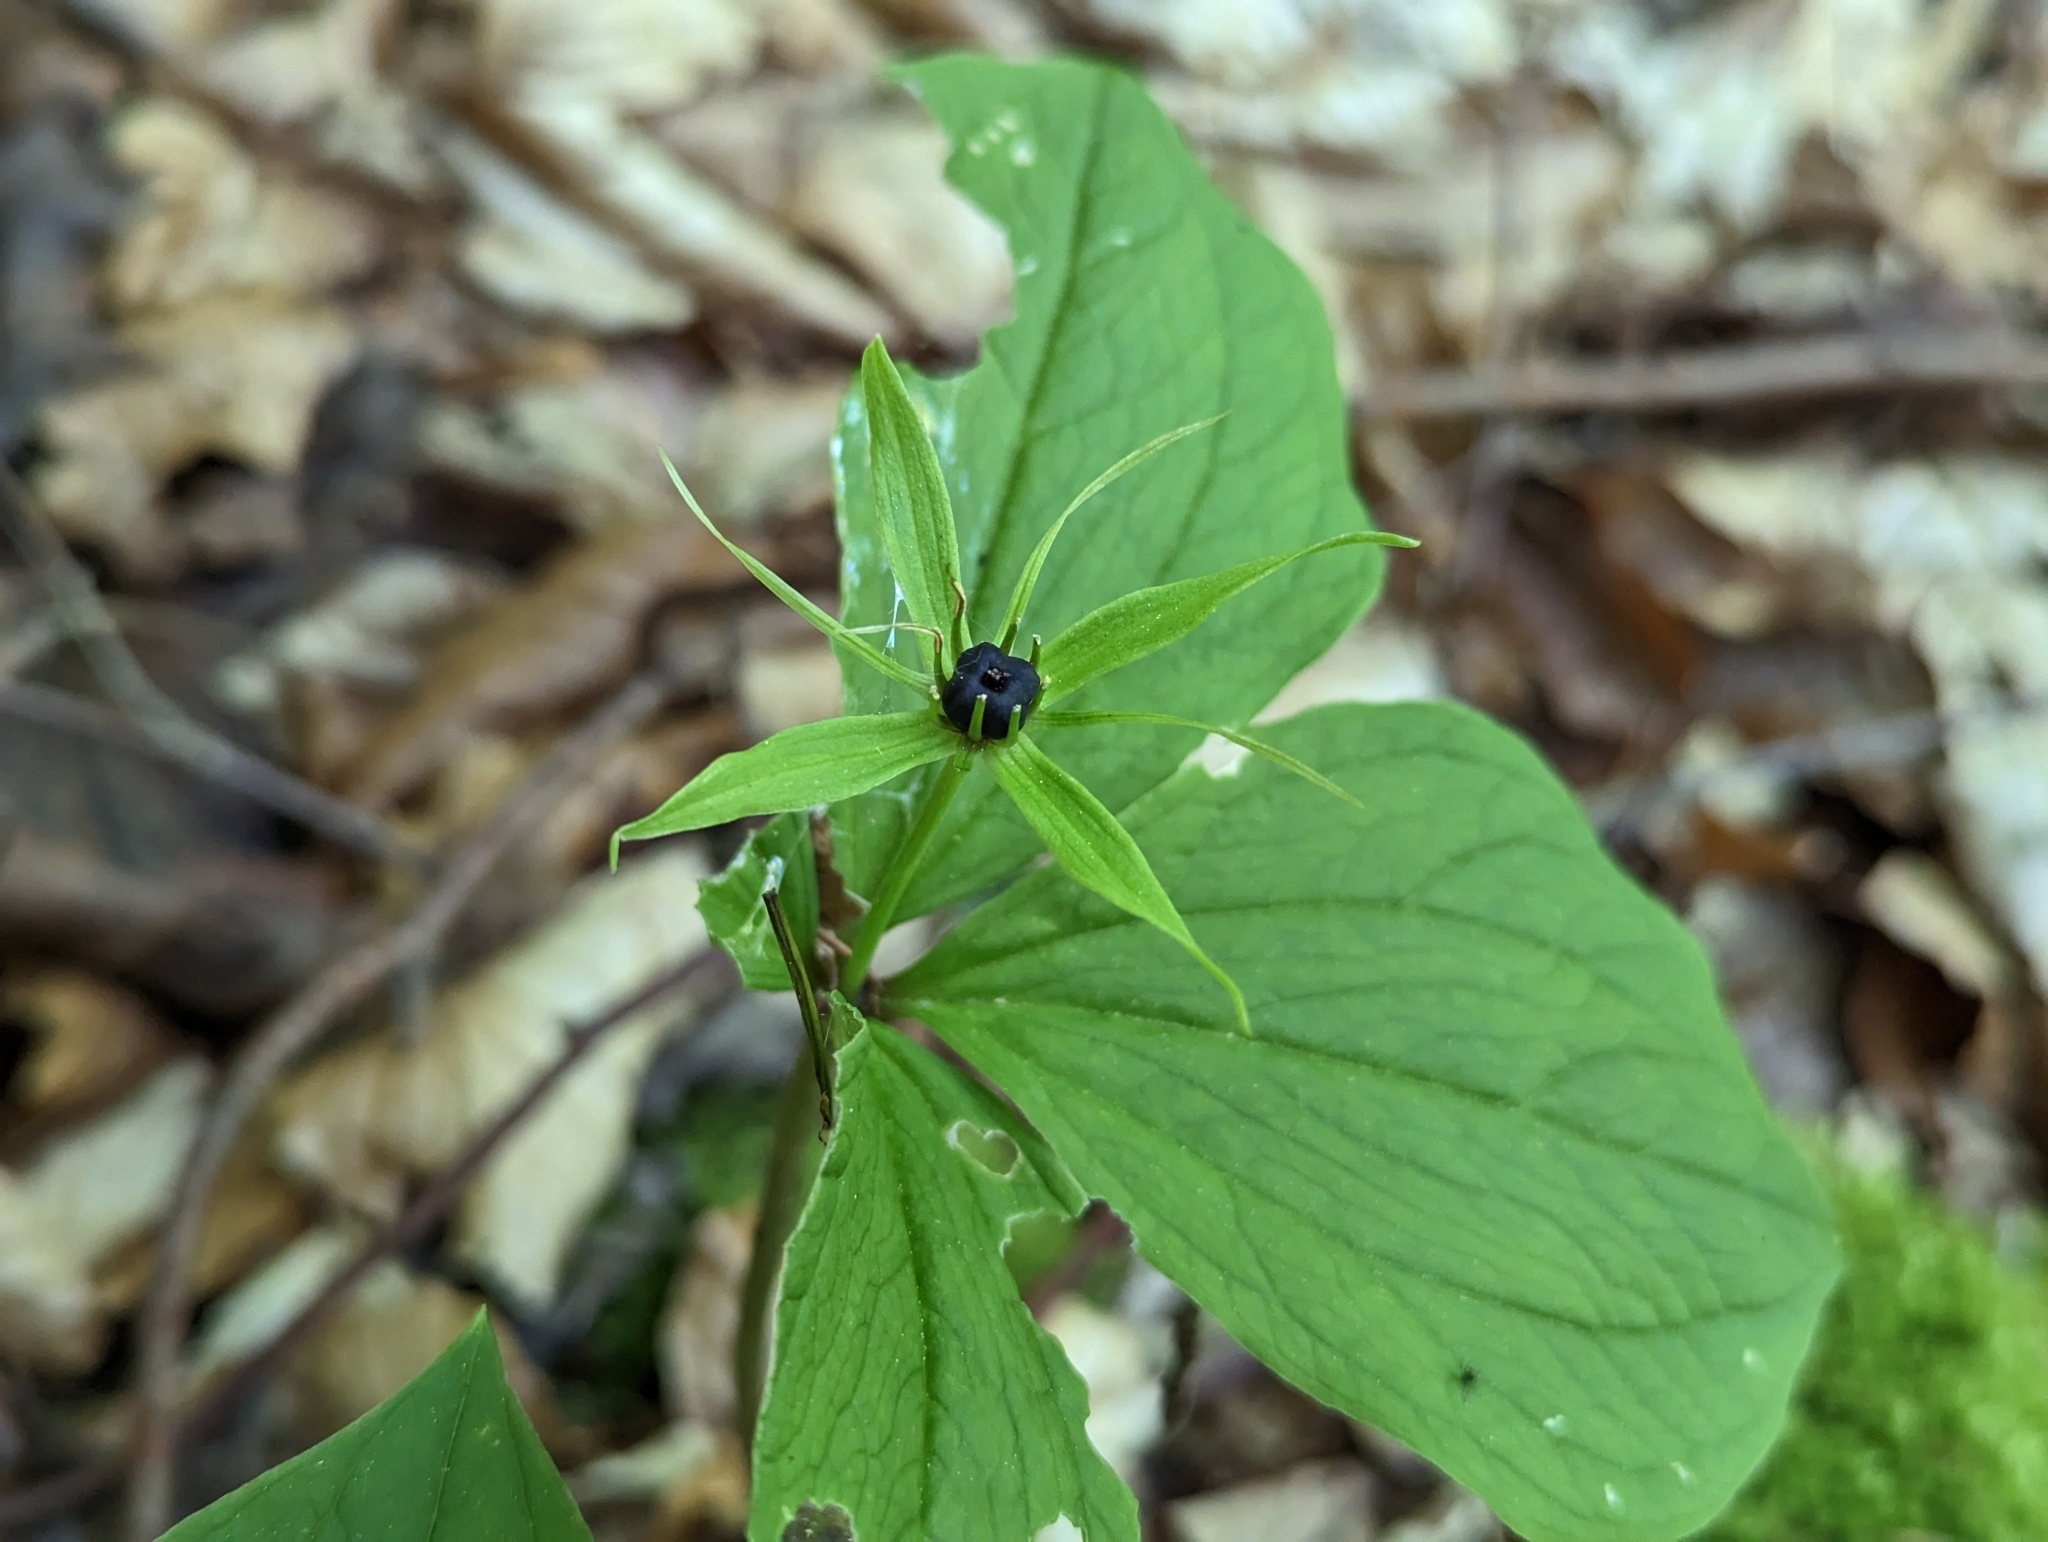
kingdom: Plantae
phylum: Tracheophyta
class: Liliopsida
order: Liliales
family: Melanthiaceae
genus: Paris
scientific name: Paris quadrifolia
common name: Herb-paris
